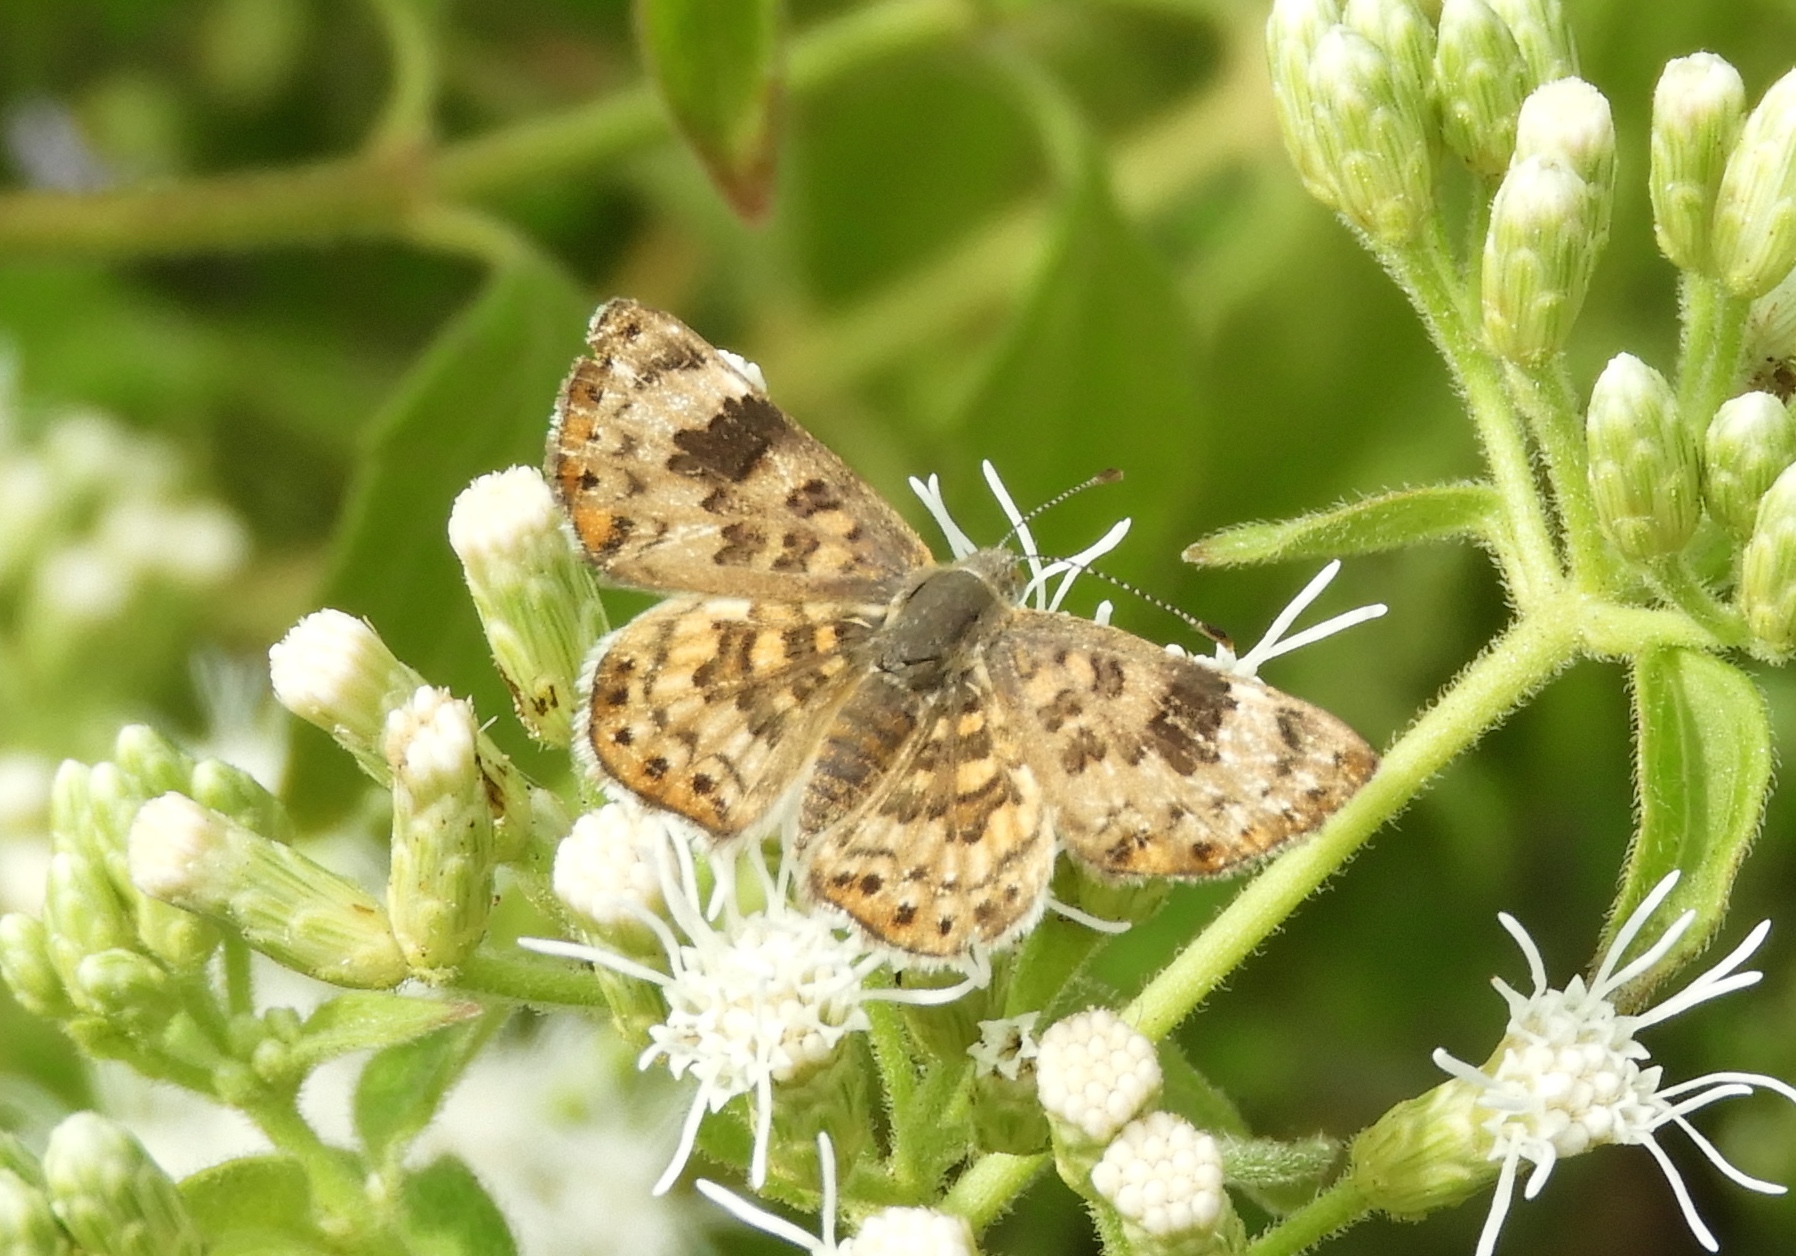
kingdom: Animalia
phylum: Arthropoda
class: Insecta
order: Lepidoptera
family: Riodinidae
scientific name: Riodinidae
